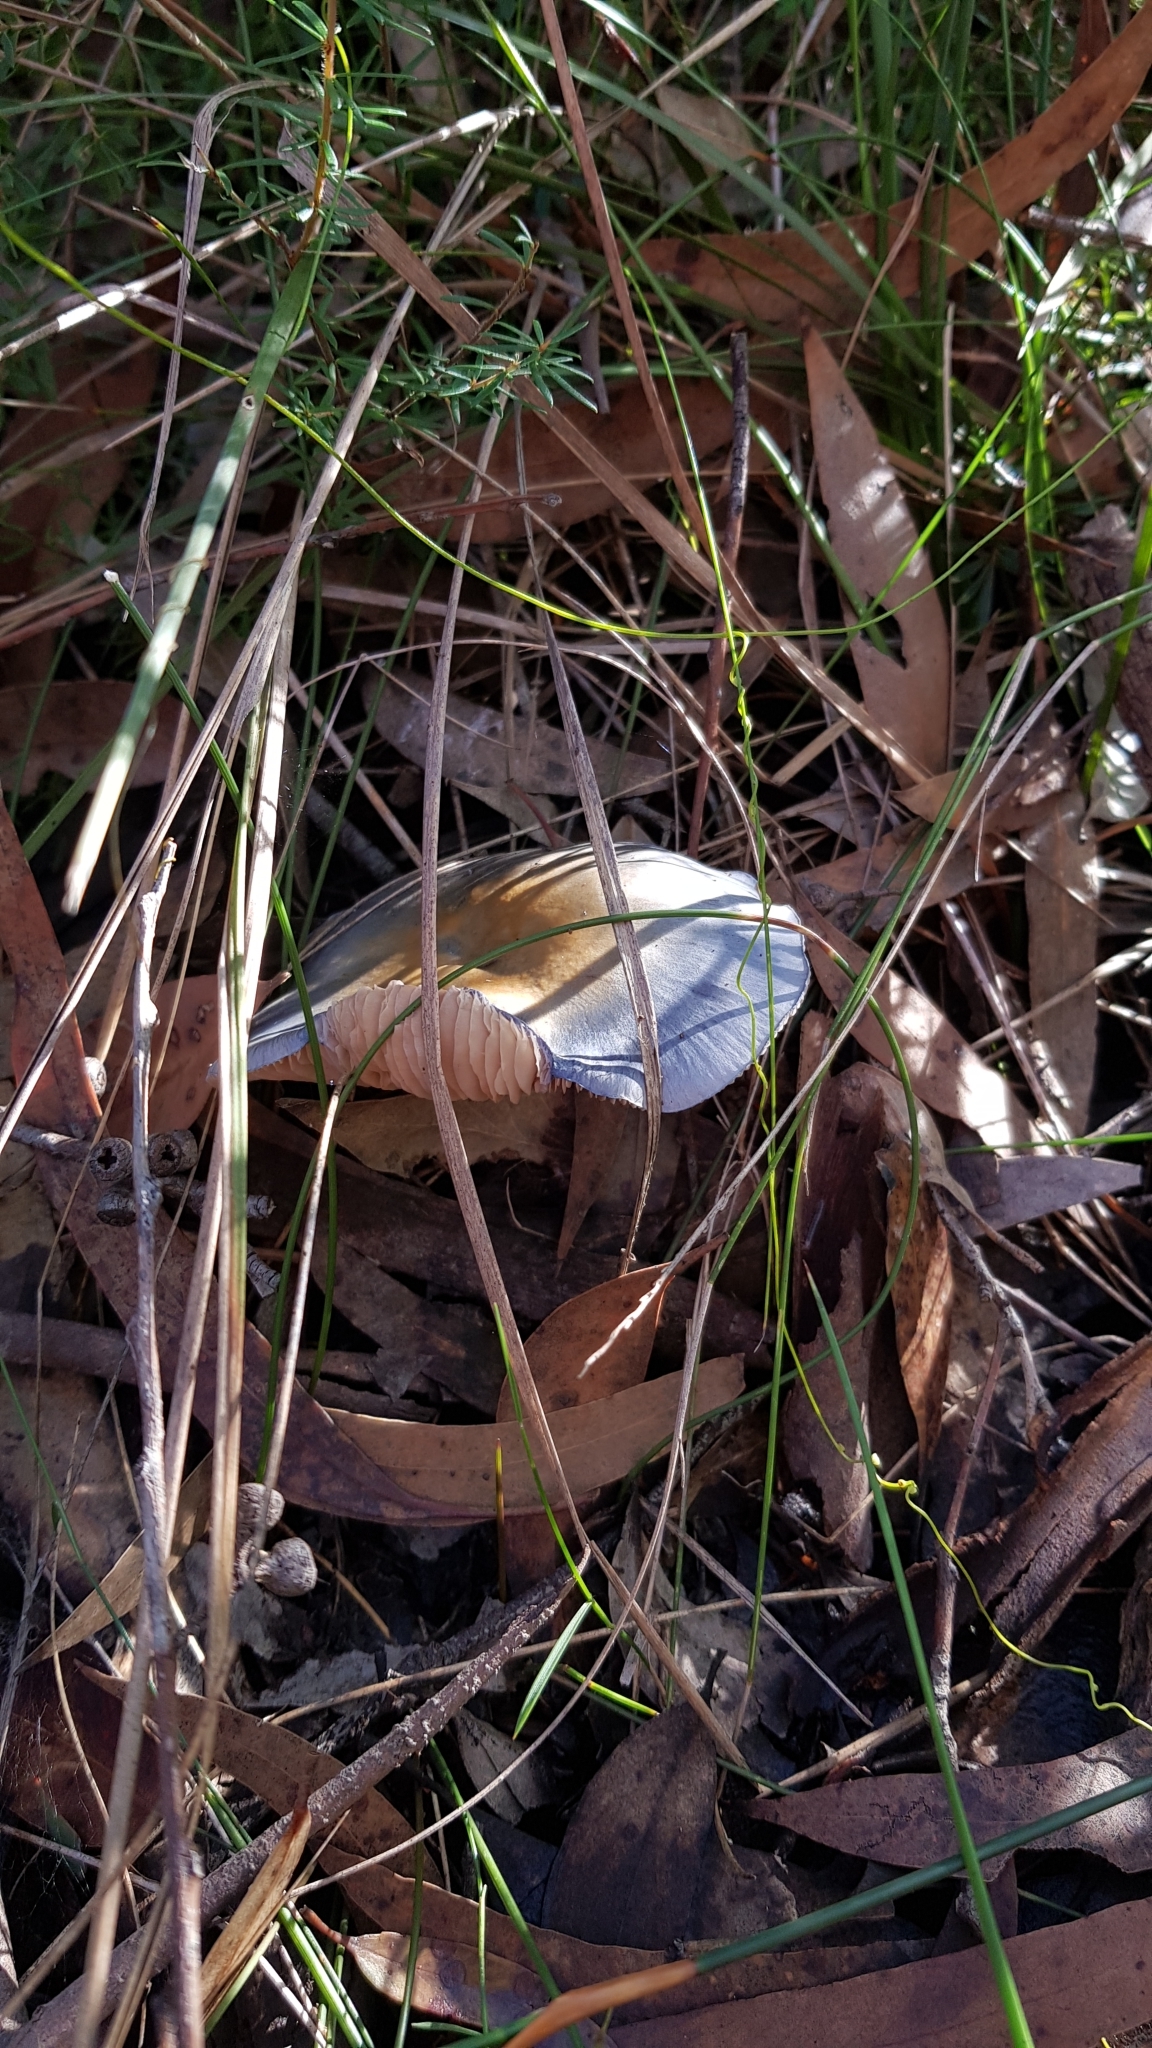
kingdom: Fungi
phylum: Basidiomycota
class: Agaricomycetes
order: Agaricales
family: Cortinariaceae
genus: Cortinarius
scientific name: Cortinarius rotundisporus
